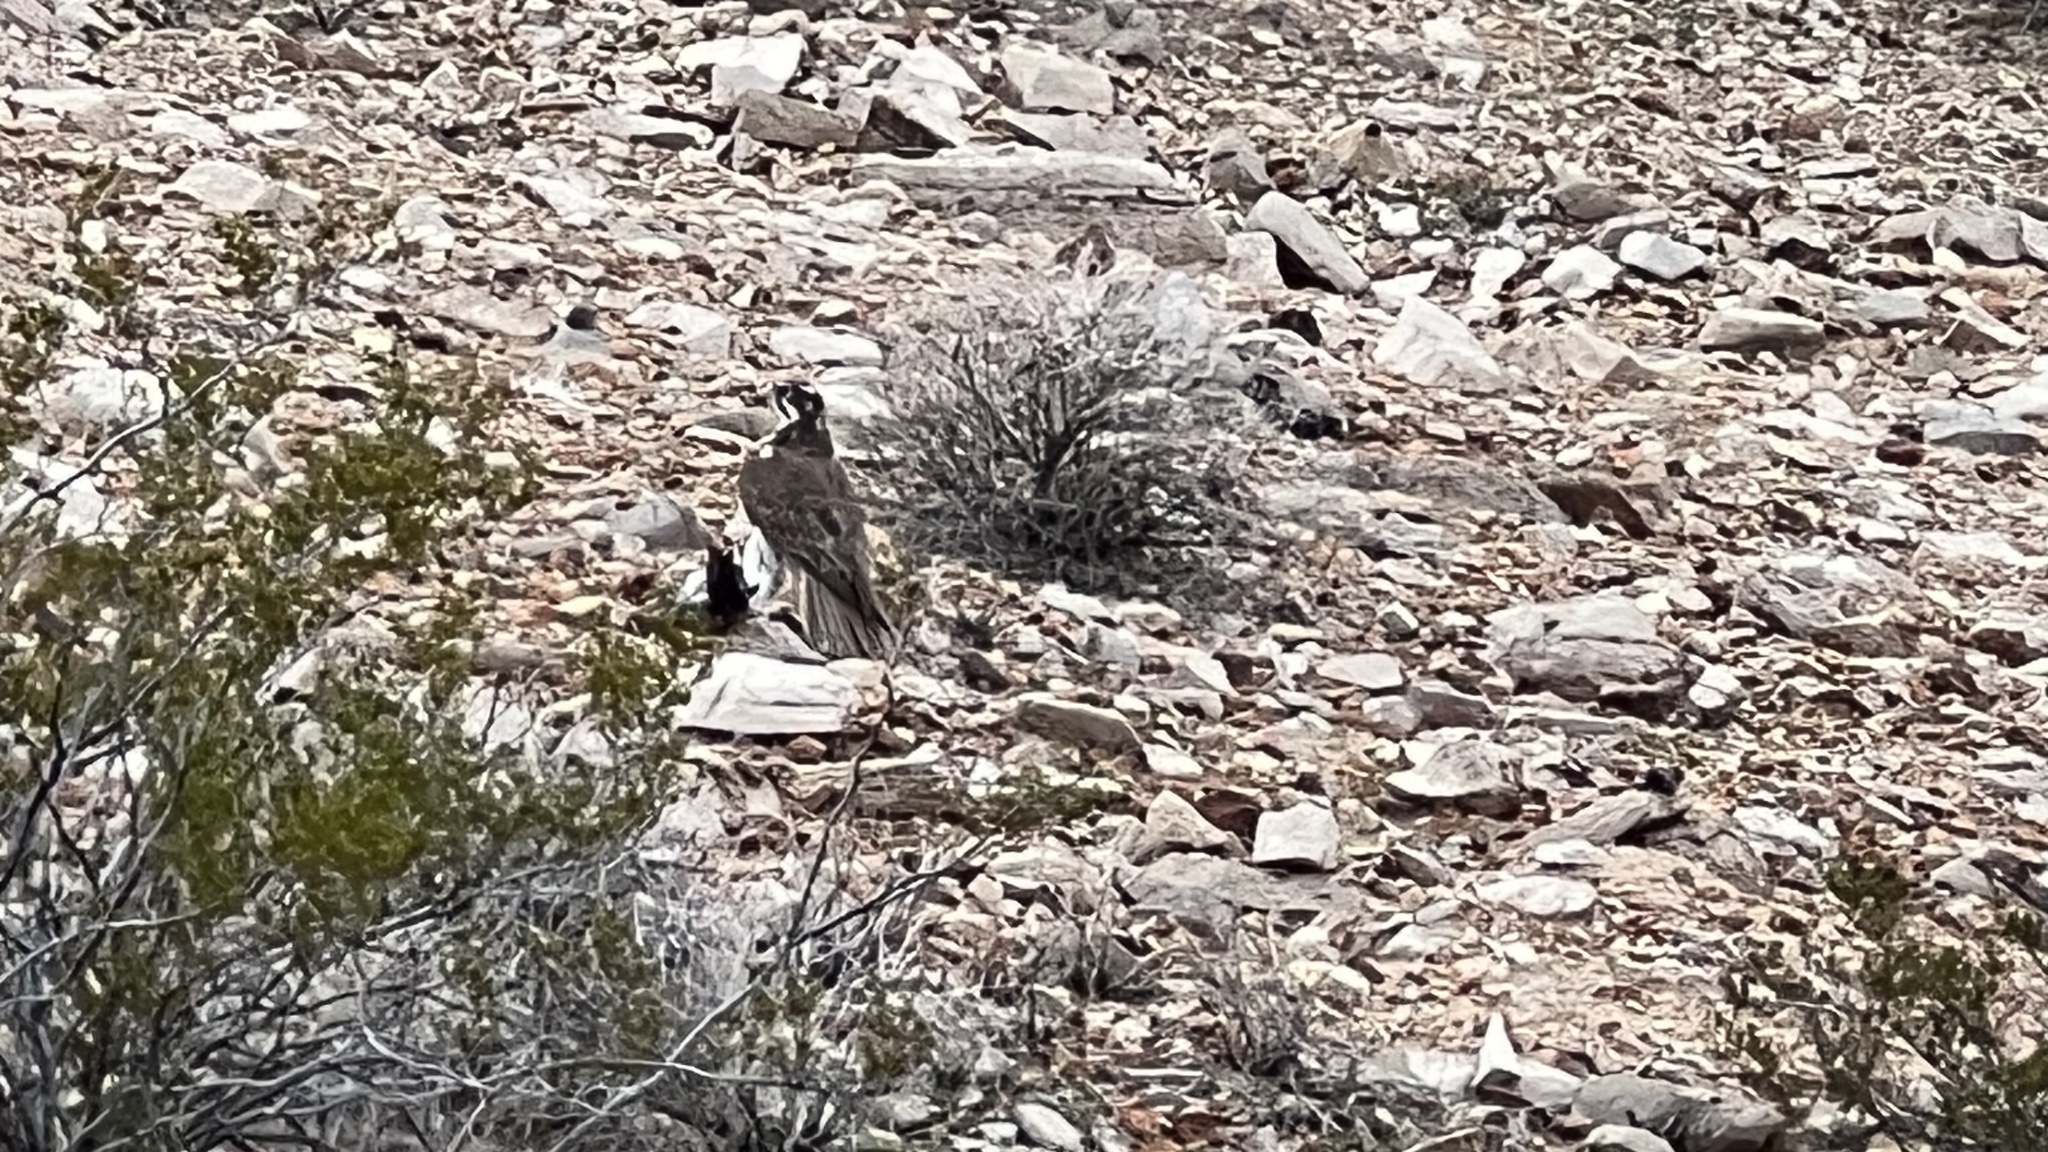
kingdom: Animalia
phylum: Chordata
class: Aves
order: Falconiformes
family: Falconidae
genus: Falco
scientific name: Falco mexicanus
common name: Prairie falcon
